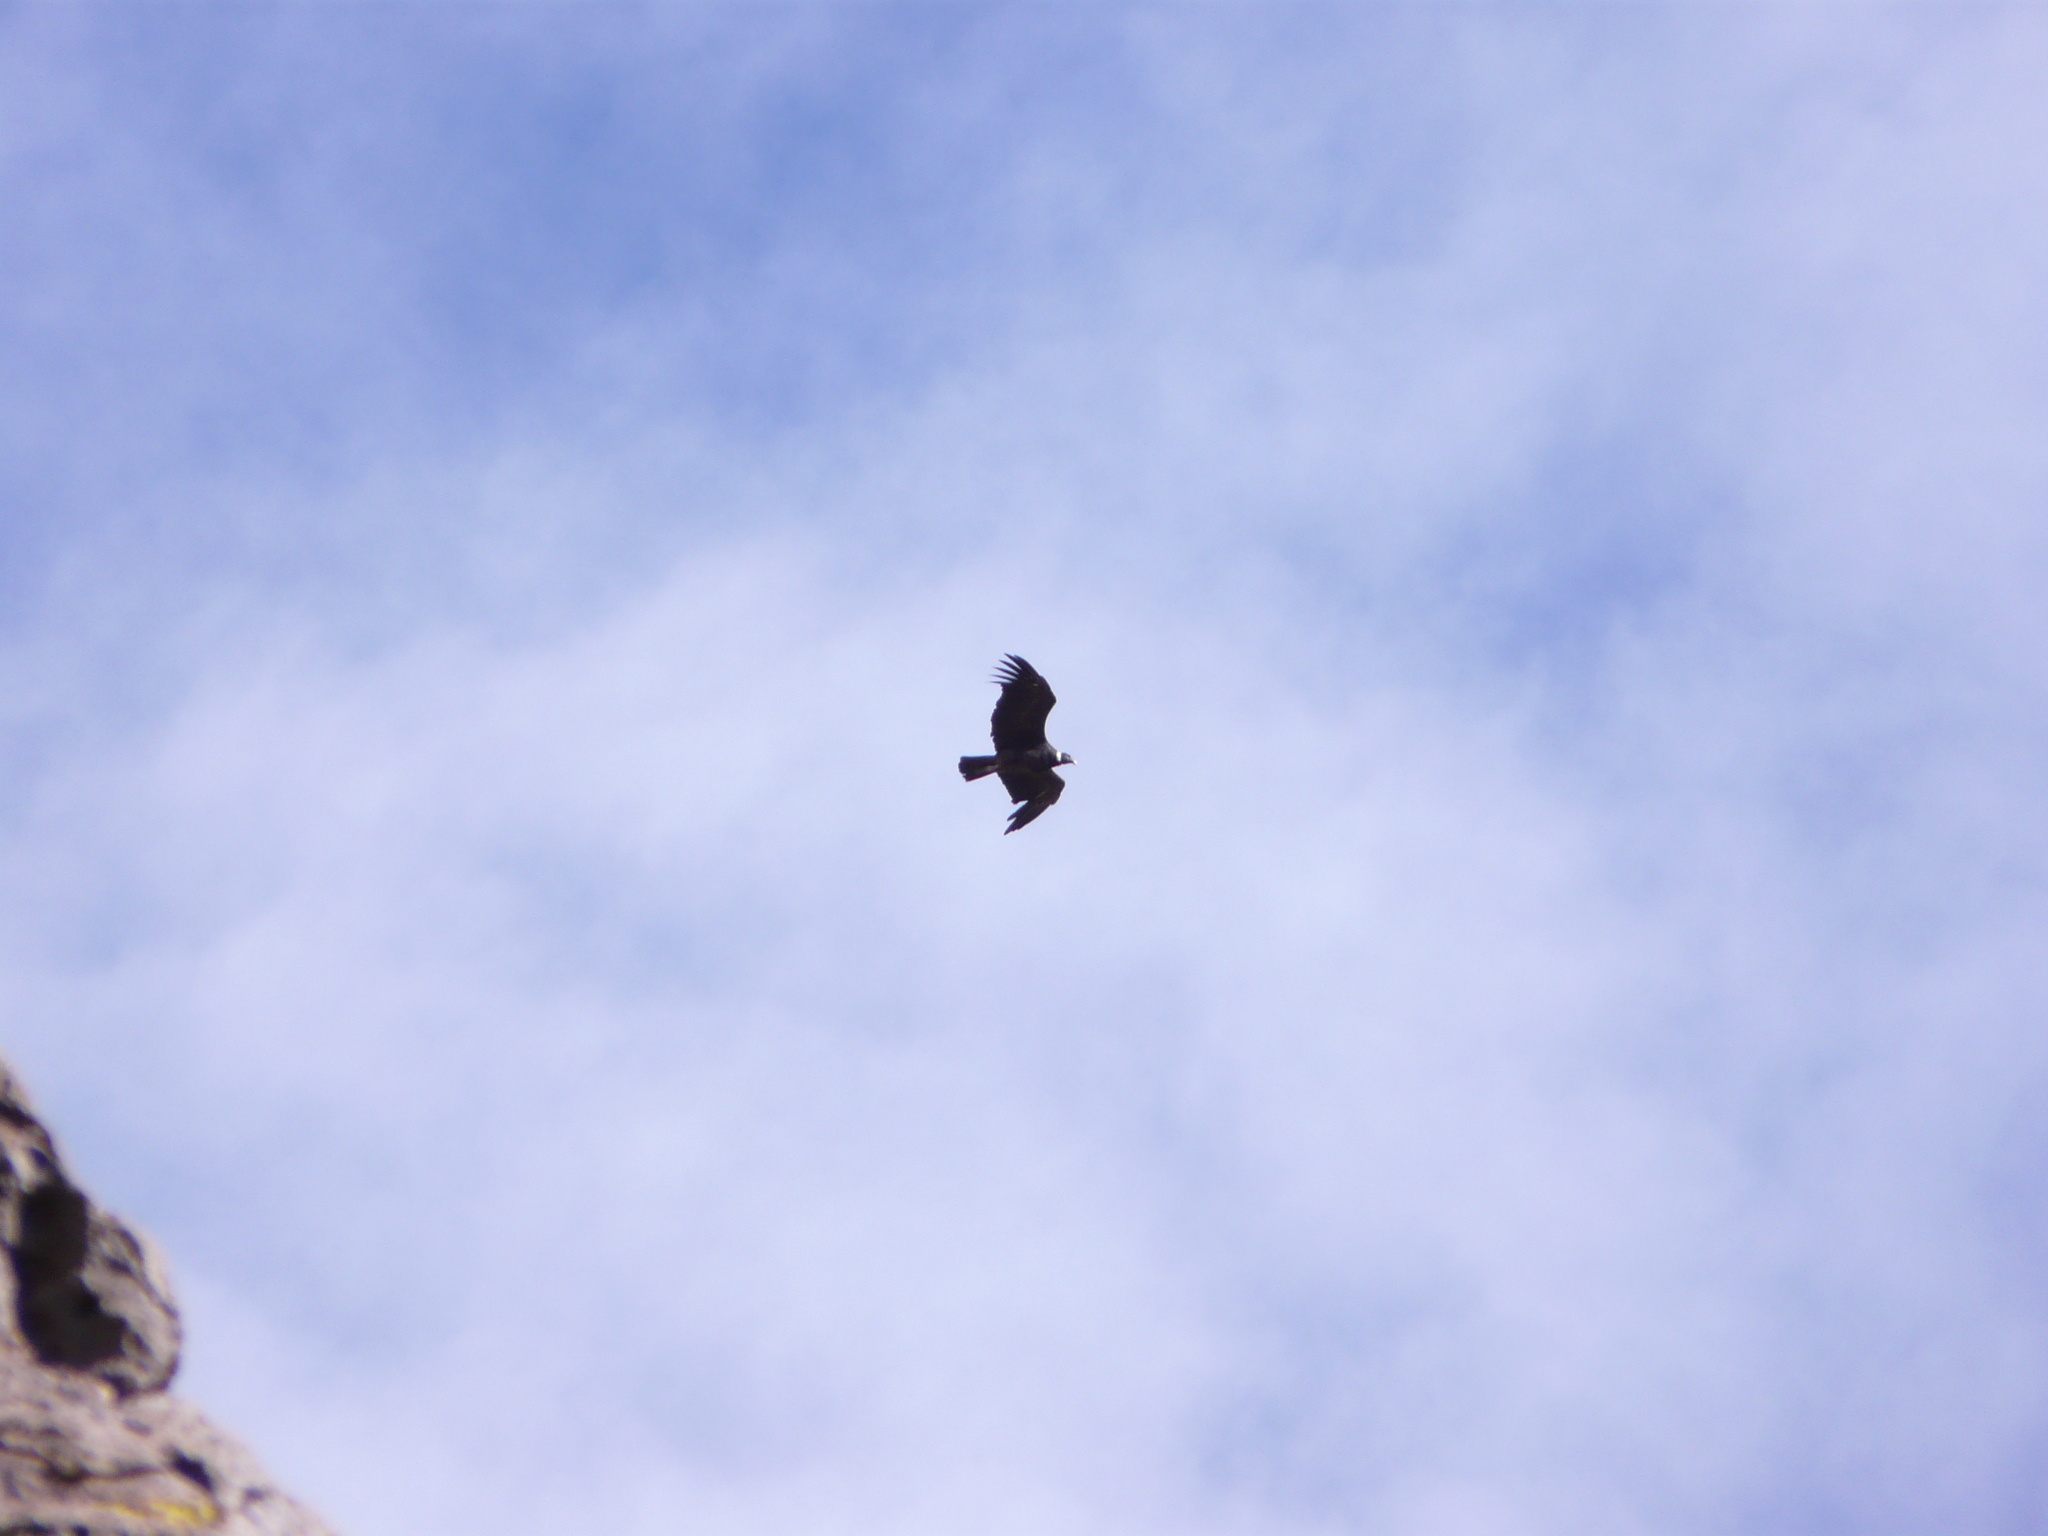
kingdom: Animalia
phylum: Chordata
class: Aves
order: Accipitriformes
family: Cathartidae
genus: Vultur
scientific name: Vultur gryphus
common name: Andean condor
